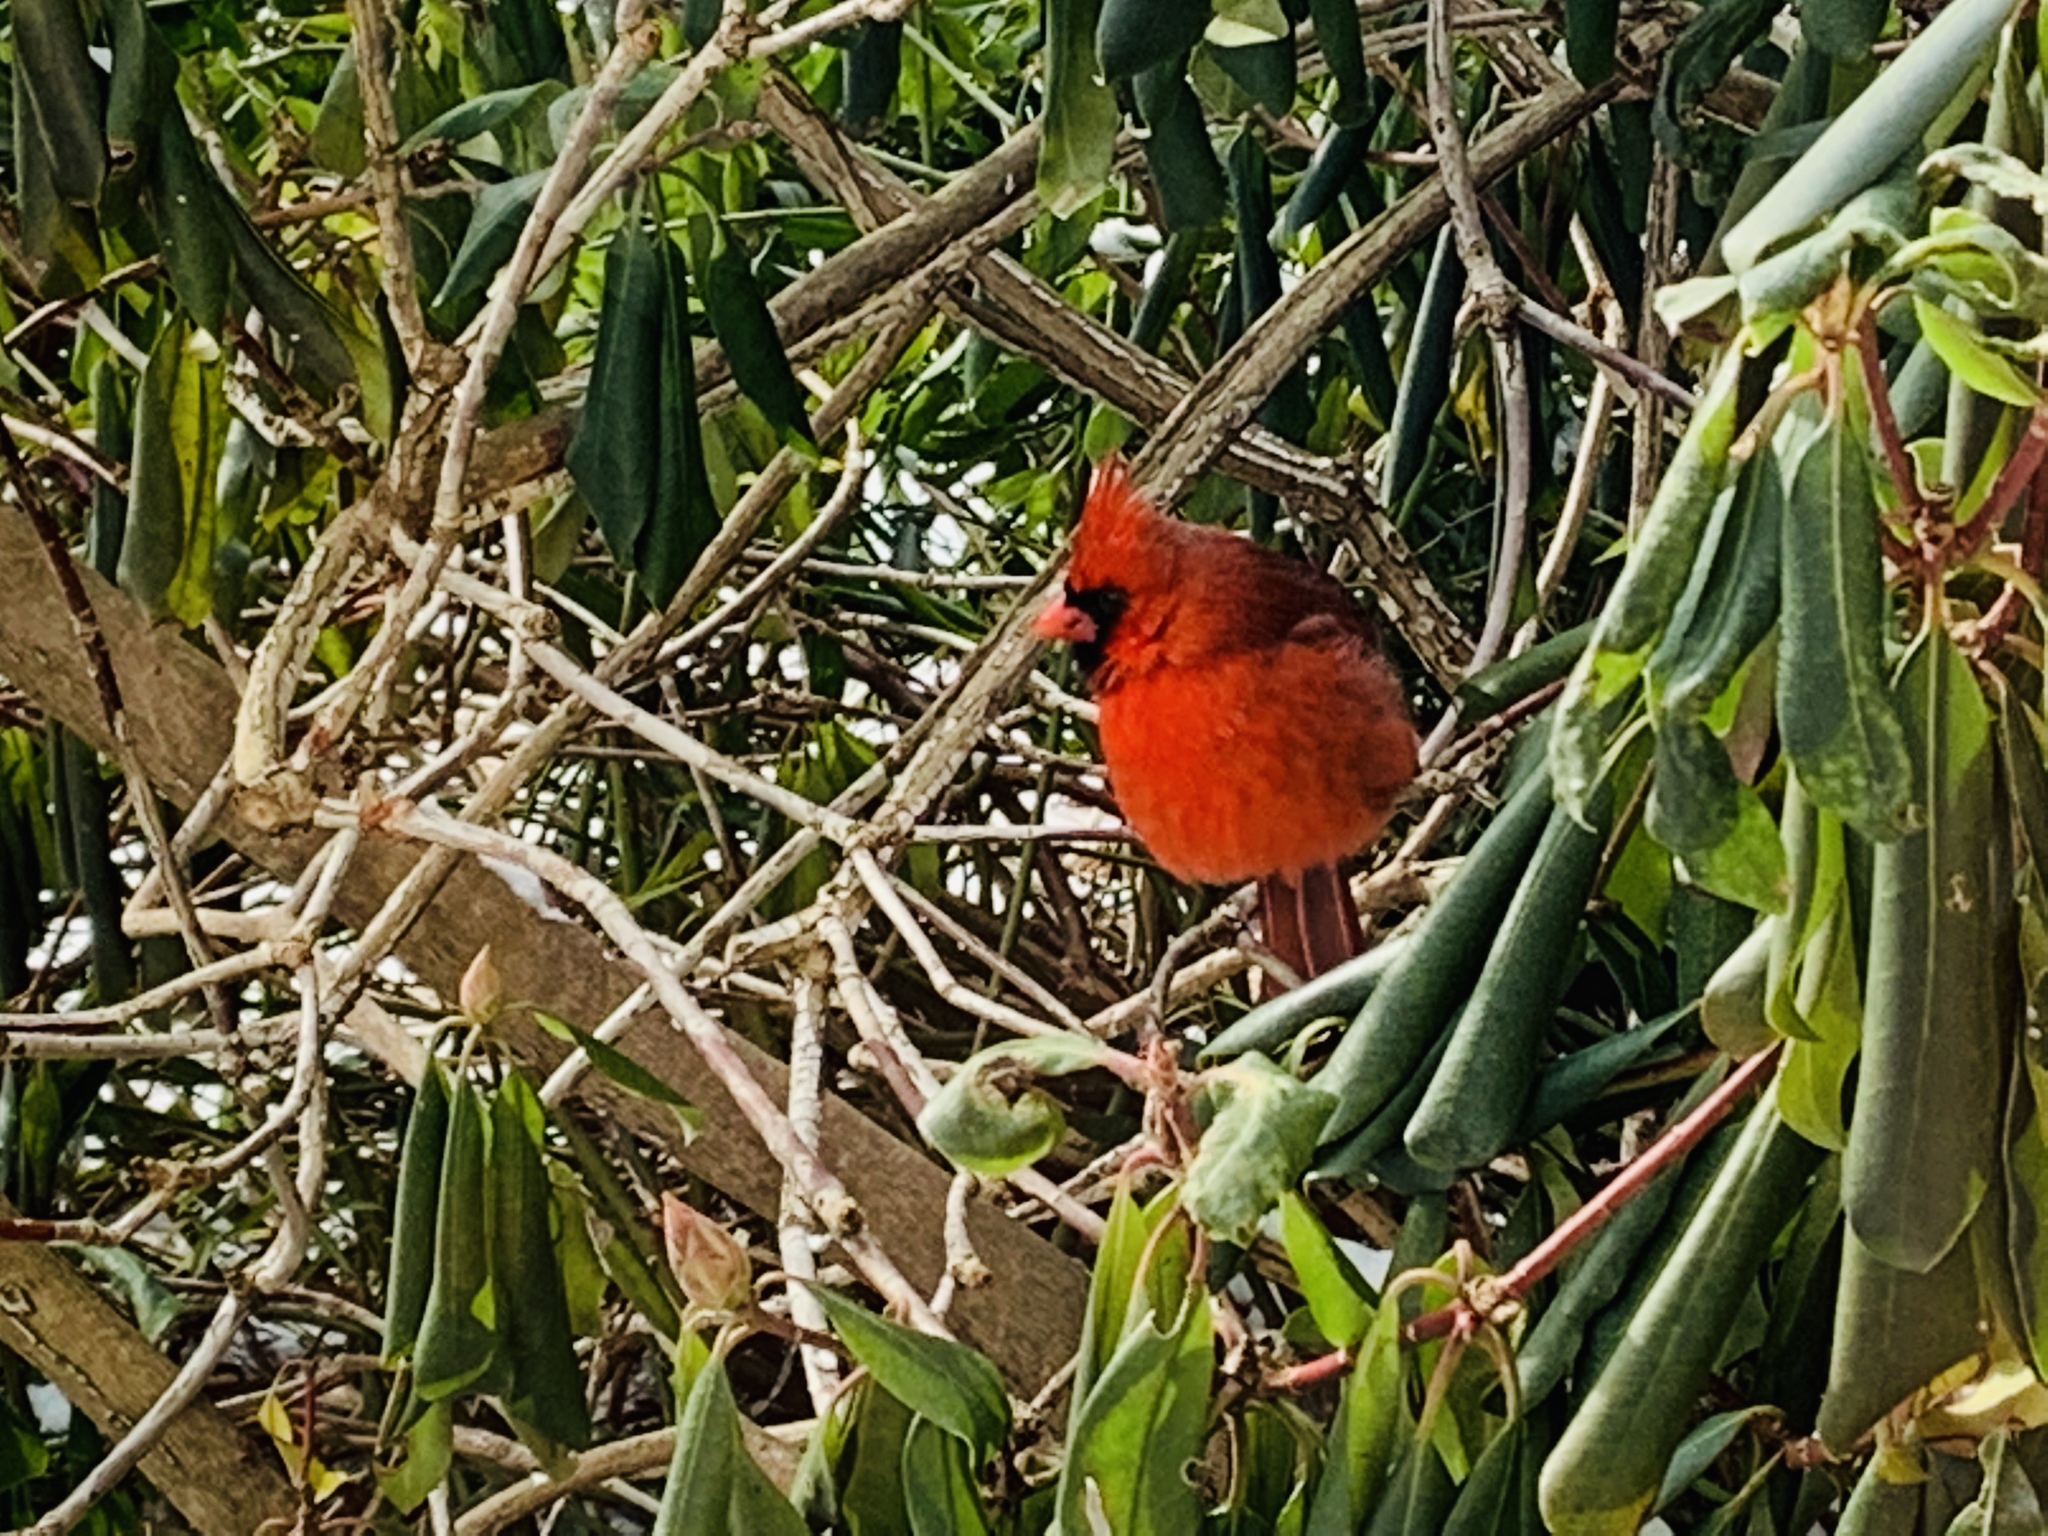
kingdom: Animalia
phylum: Chordata
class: Aves
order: Passeriformes
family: Cardinalidae
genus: Cardinalis
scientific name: Cardinalis cardinalis
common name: Northern cardinal
